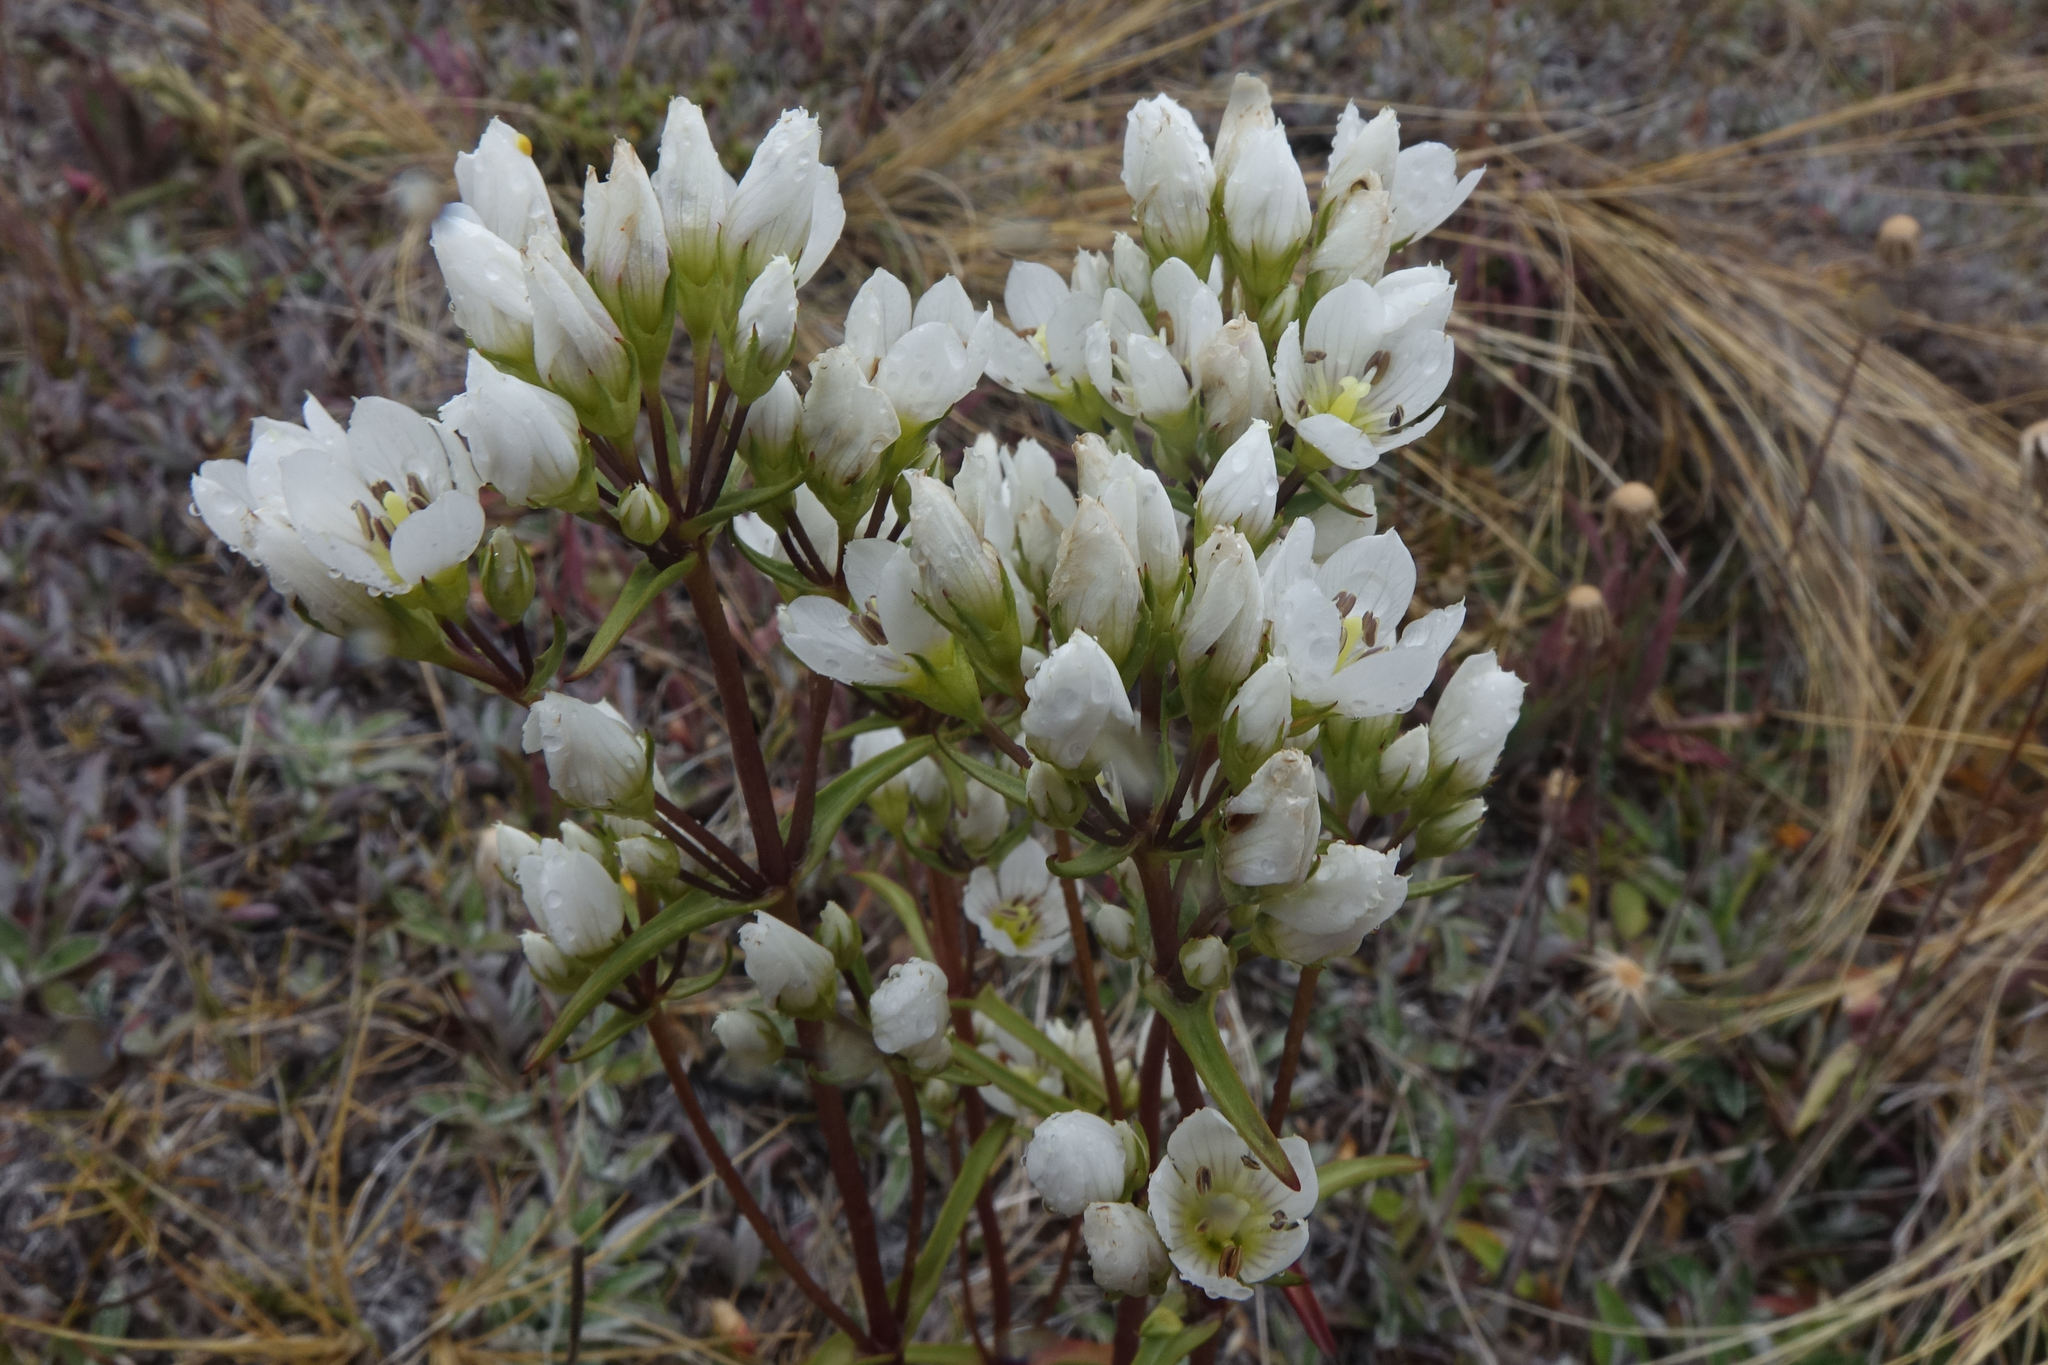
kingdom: Plantae
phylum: Tracheophyta
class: Magnoliopsida
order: Gentianales
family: Gentianaceae
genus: Gentianella
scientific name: Gentianella corymbifera
